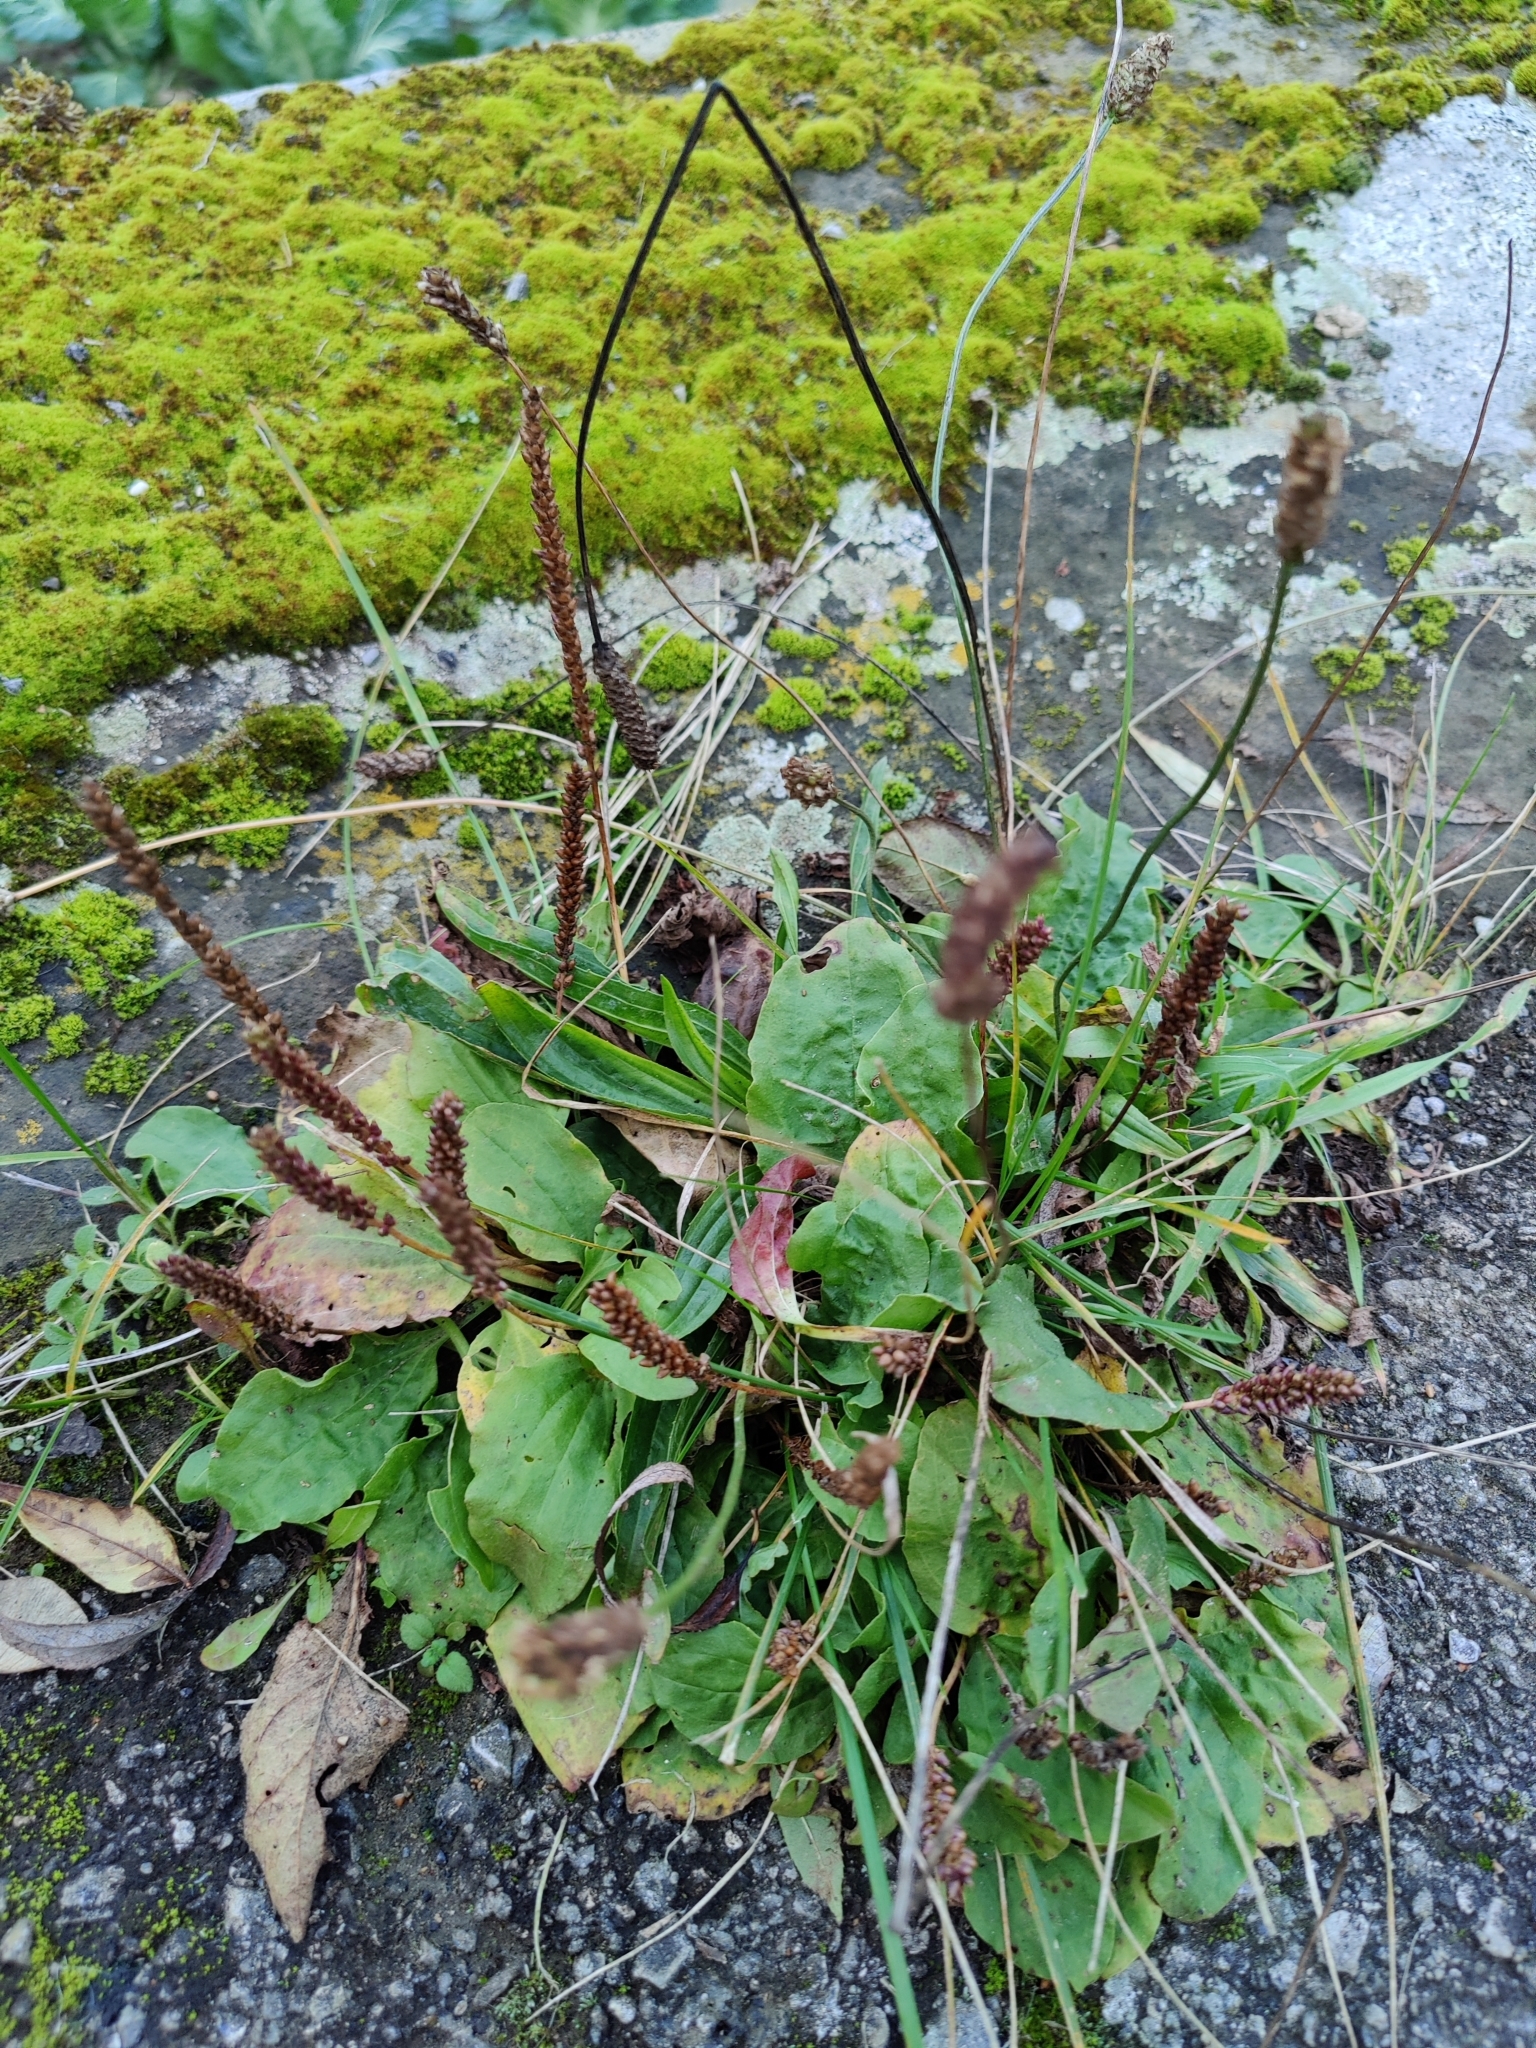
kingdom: Plantae
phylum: Tracheophyta
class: Magnoliopsida
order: Lamiales
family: Plantaginaceae
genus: Plantago
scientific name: Plantago major
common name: Common plantain
